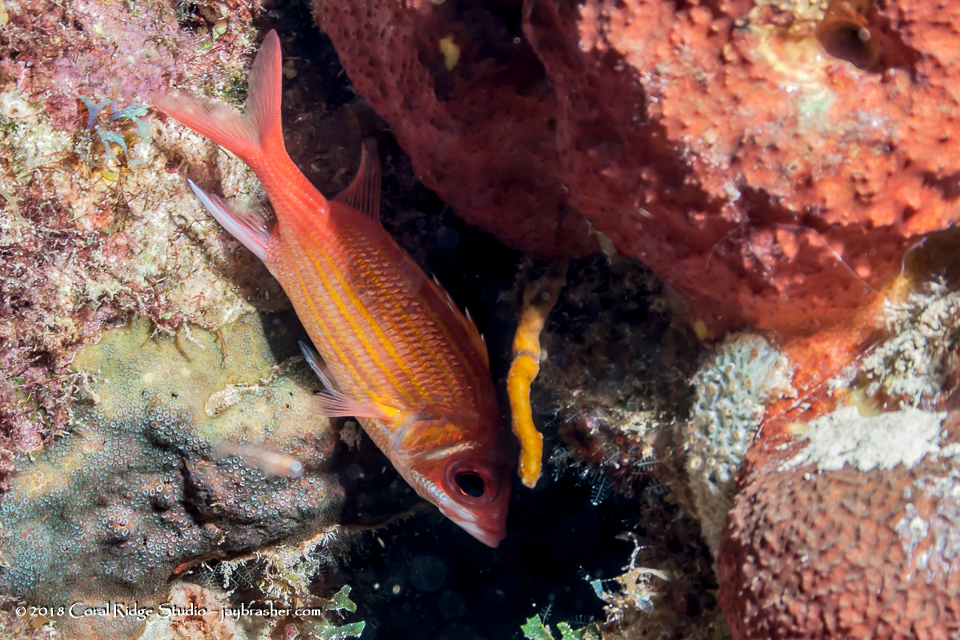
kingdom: Animalia
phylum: Chordata
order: Beryciformes
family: Holocentridae
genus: Neoniphon
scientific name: Neoniphon marianus
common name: Longjaw squirrelfish
